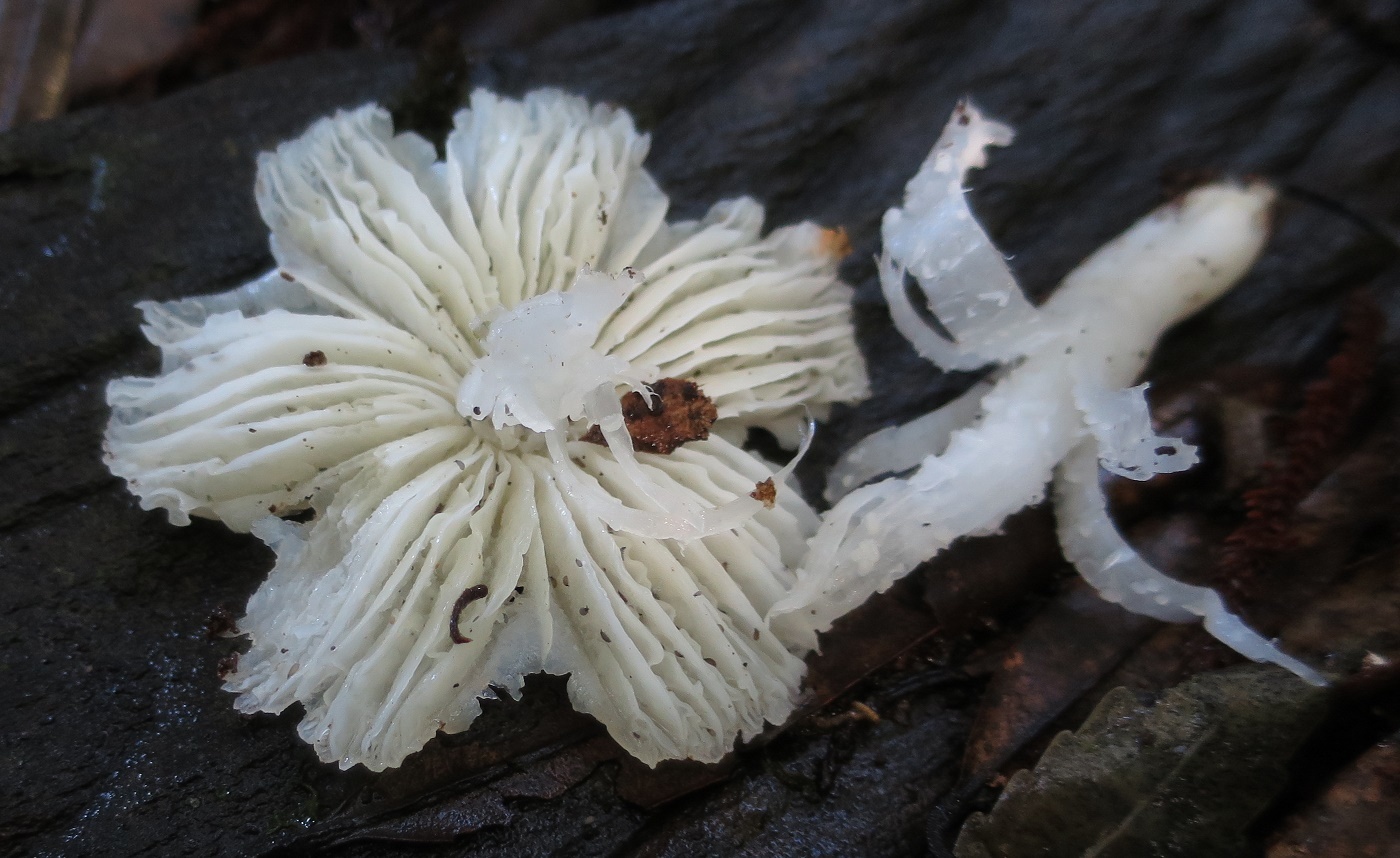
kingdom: Fungi
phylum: Basidiomycota
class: Agaricomycetes
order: Agaricales
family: Hygrophoraceae
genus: Humidicutis
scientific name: Humidicutis mavis
